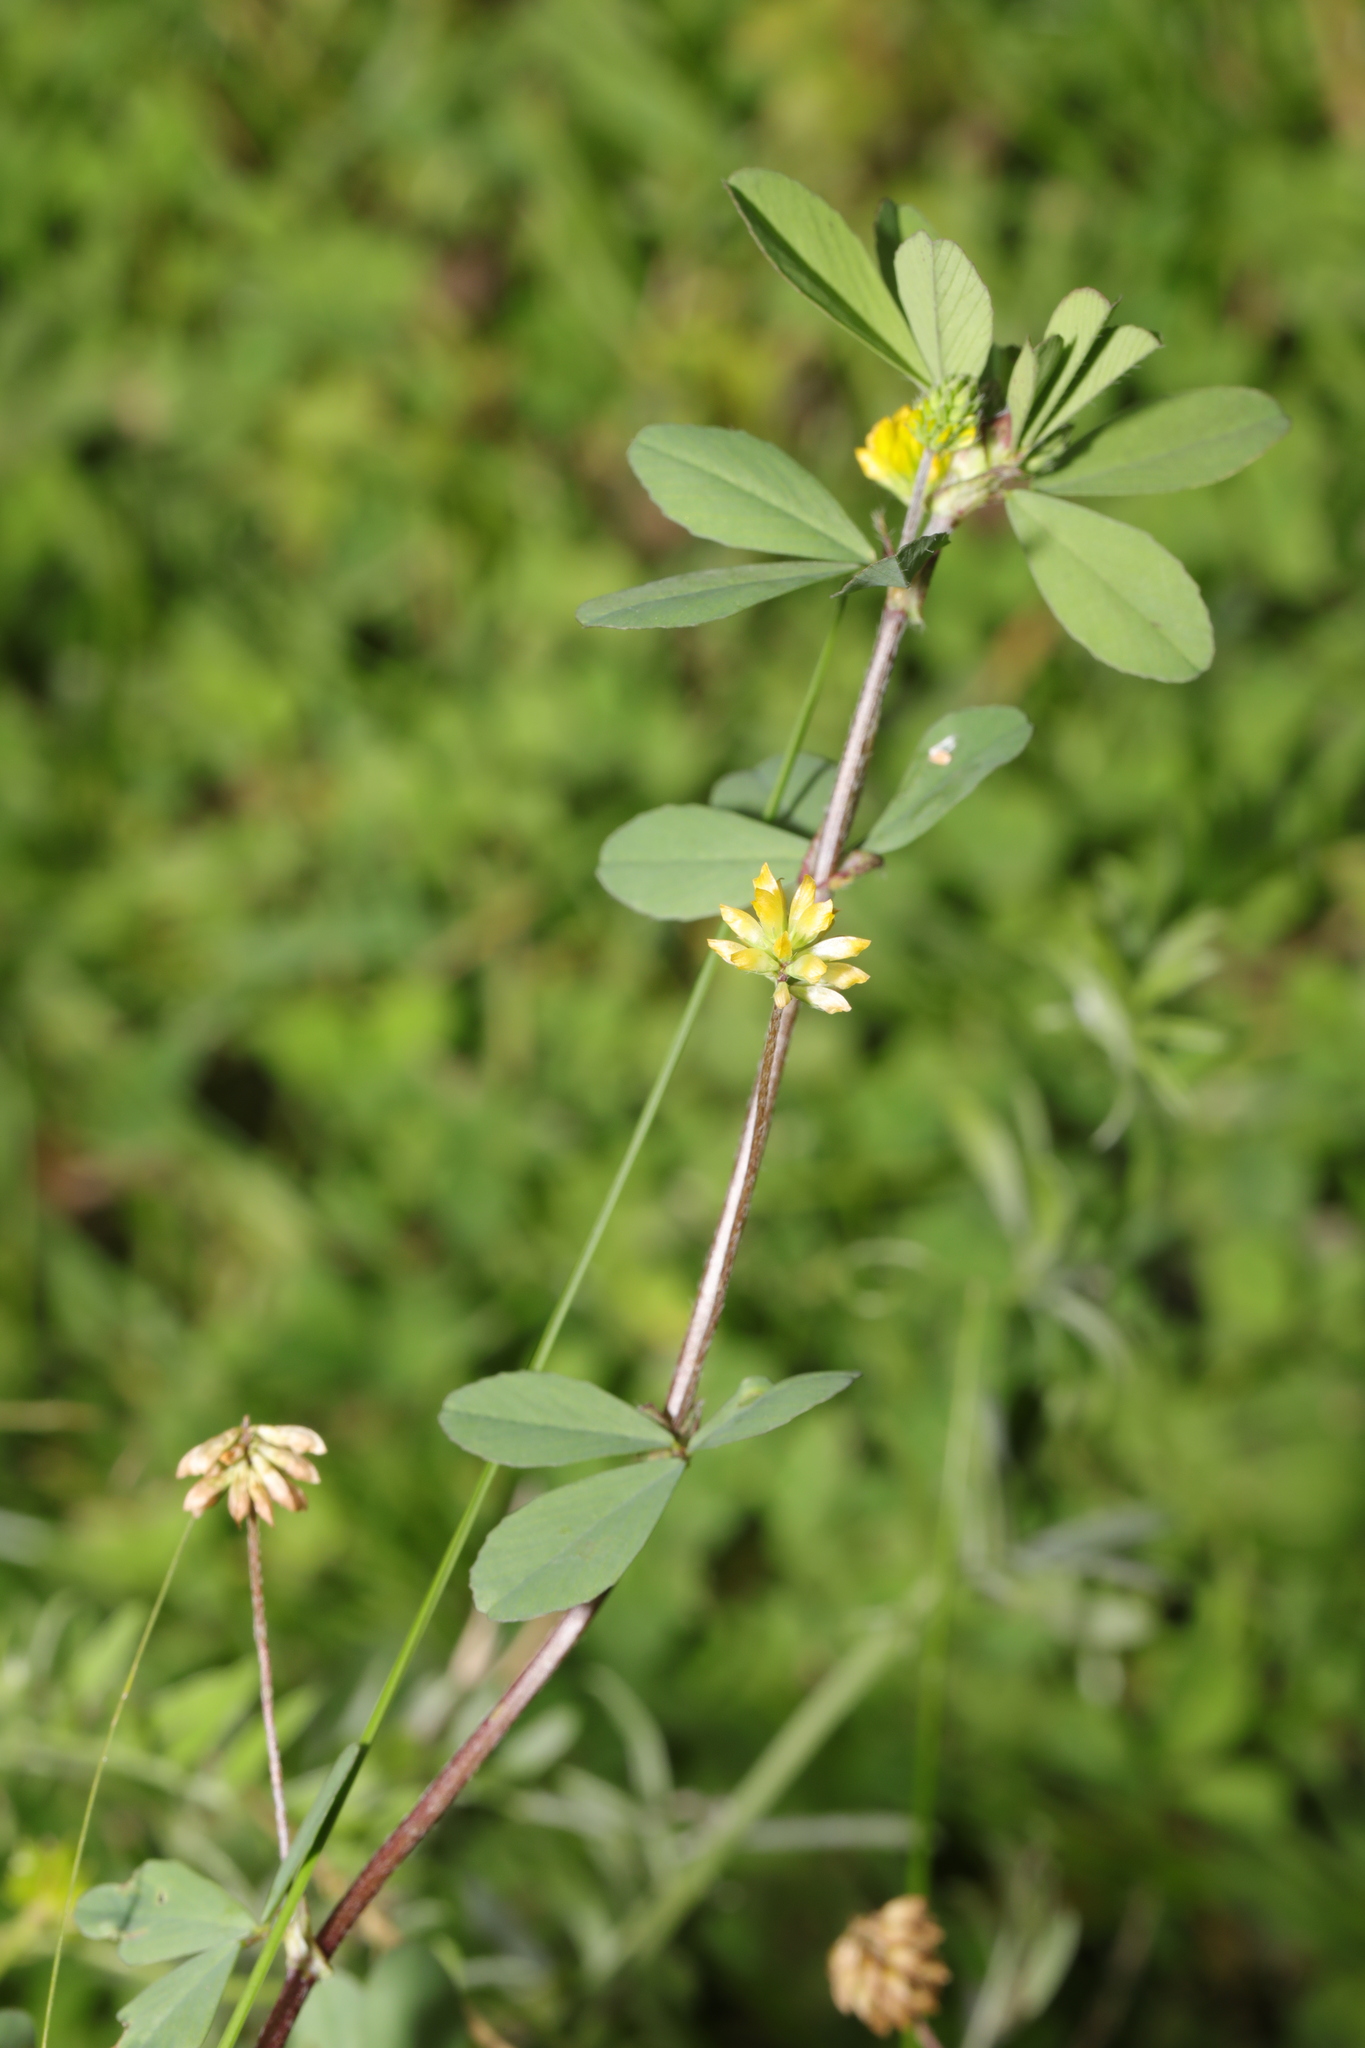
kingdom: Plantae
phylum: Tracheophyta
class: Magnoliopsida
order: Fabales
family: Fabaceae
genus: Trifolium
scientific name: Trifolium dubium
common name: Suckling clover
